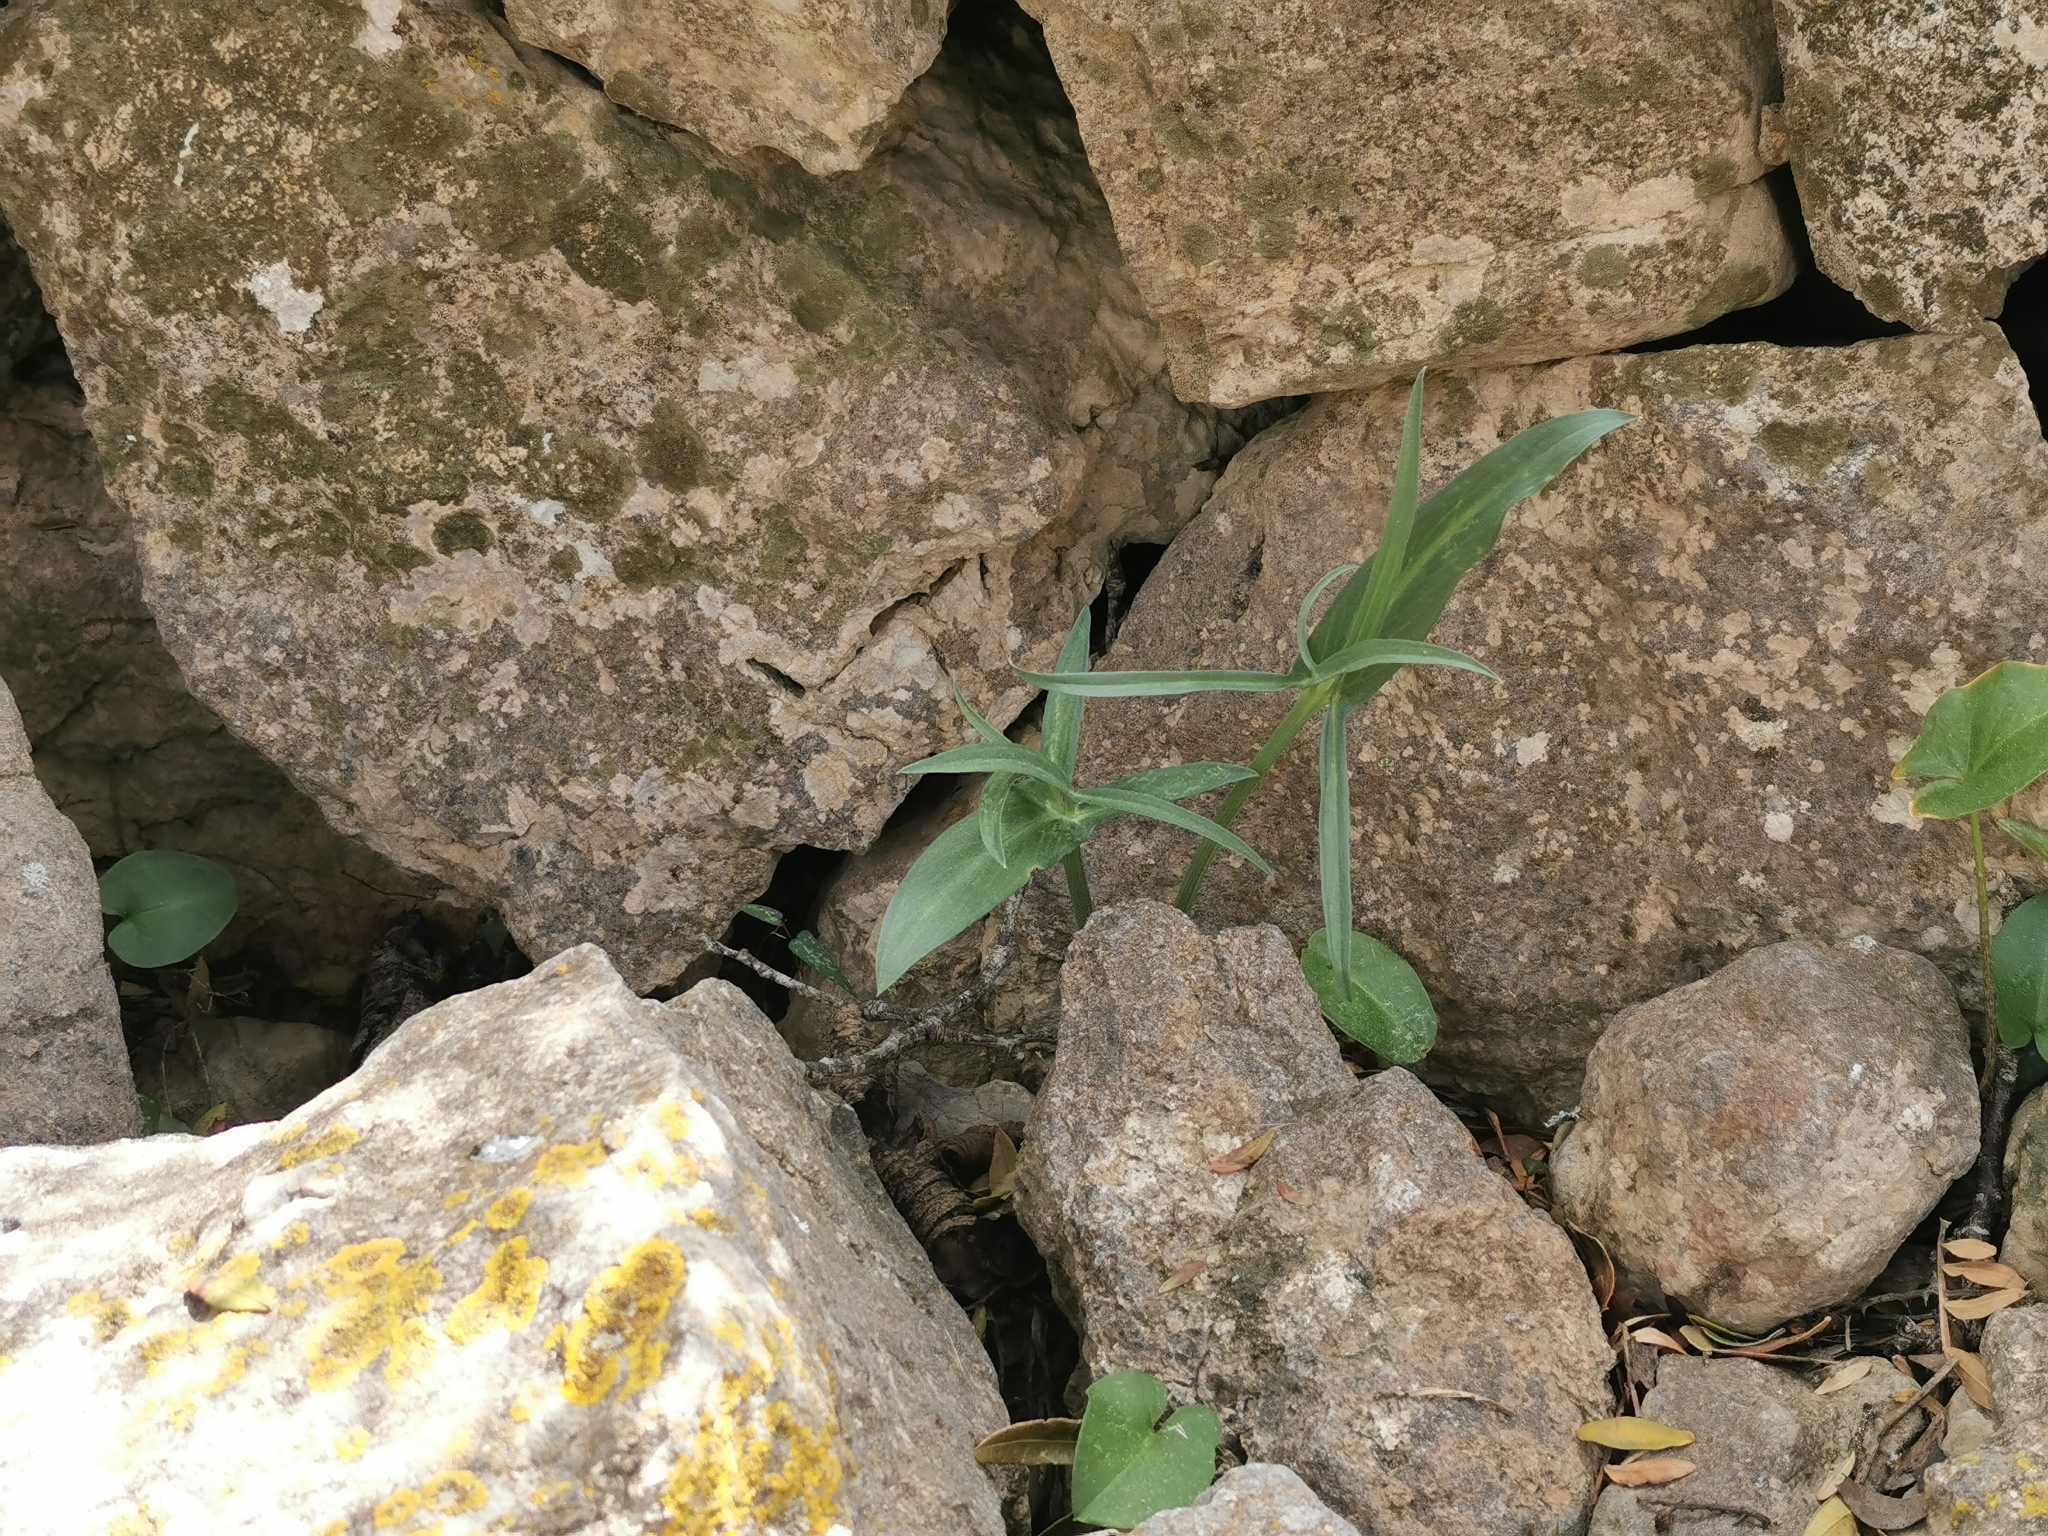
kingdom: Plantae
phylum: Tracheophyta
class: Liliopsida
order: Alismatales
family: Araceae
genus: Helicodiceros
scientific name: Helicodiceros muscivorus
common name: Snakeroot
